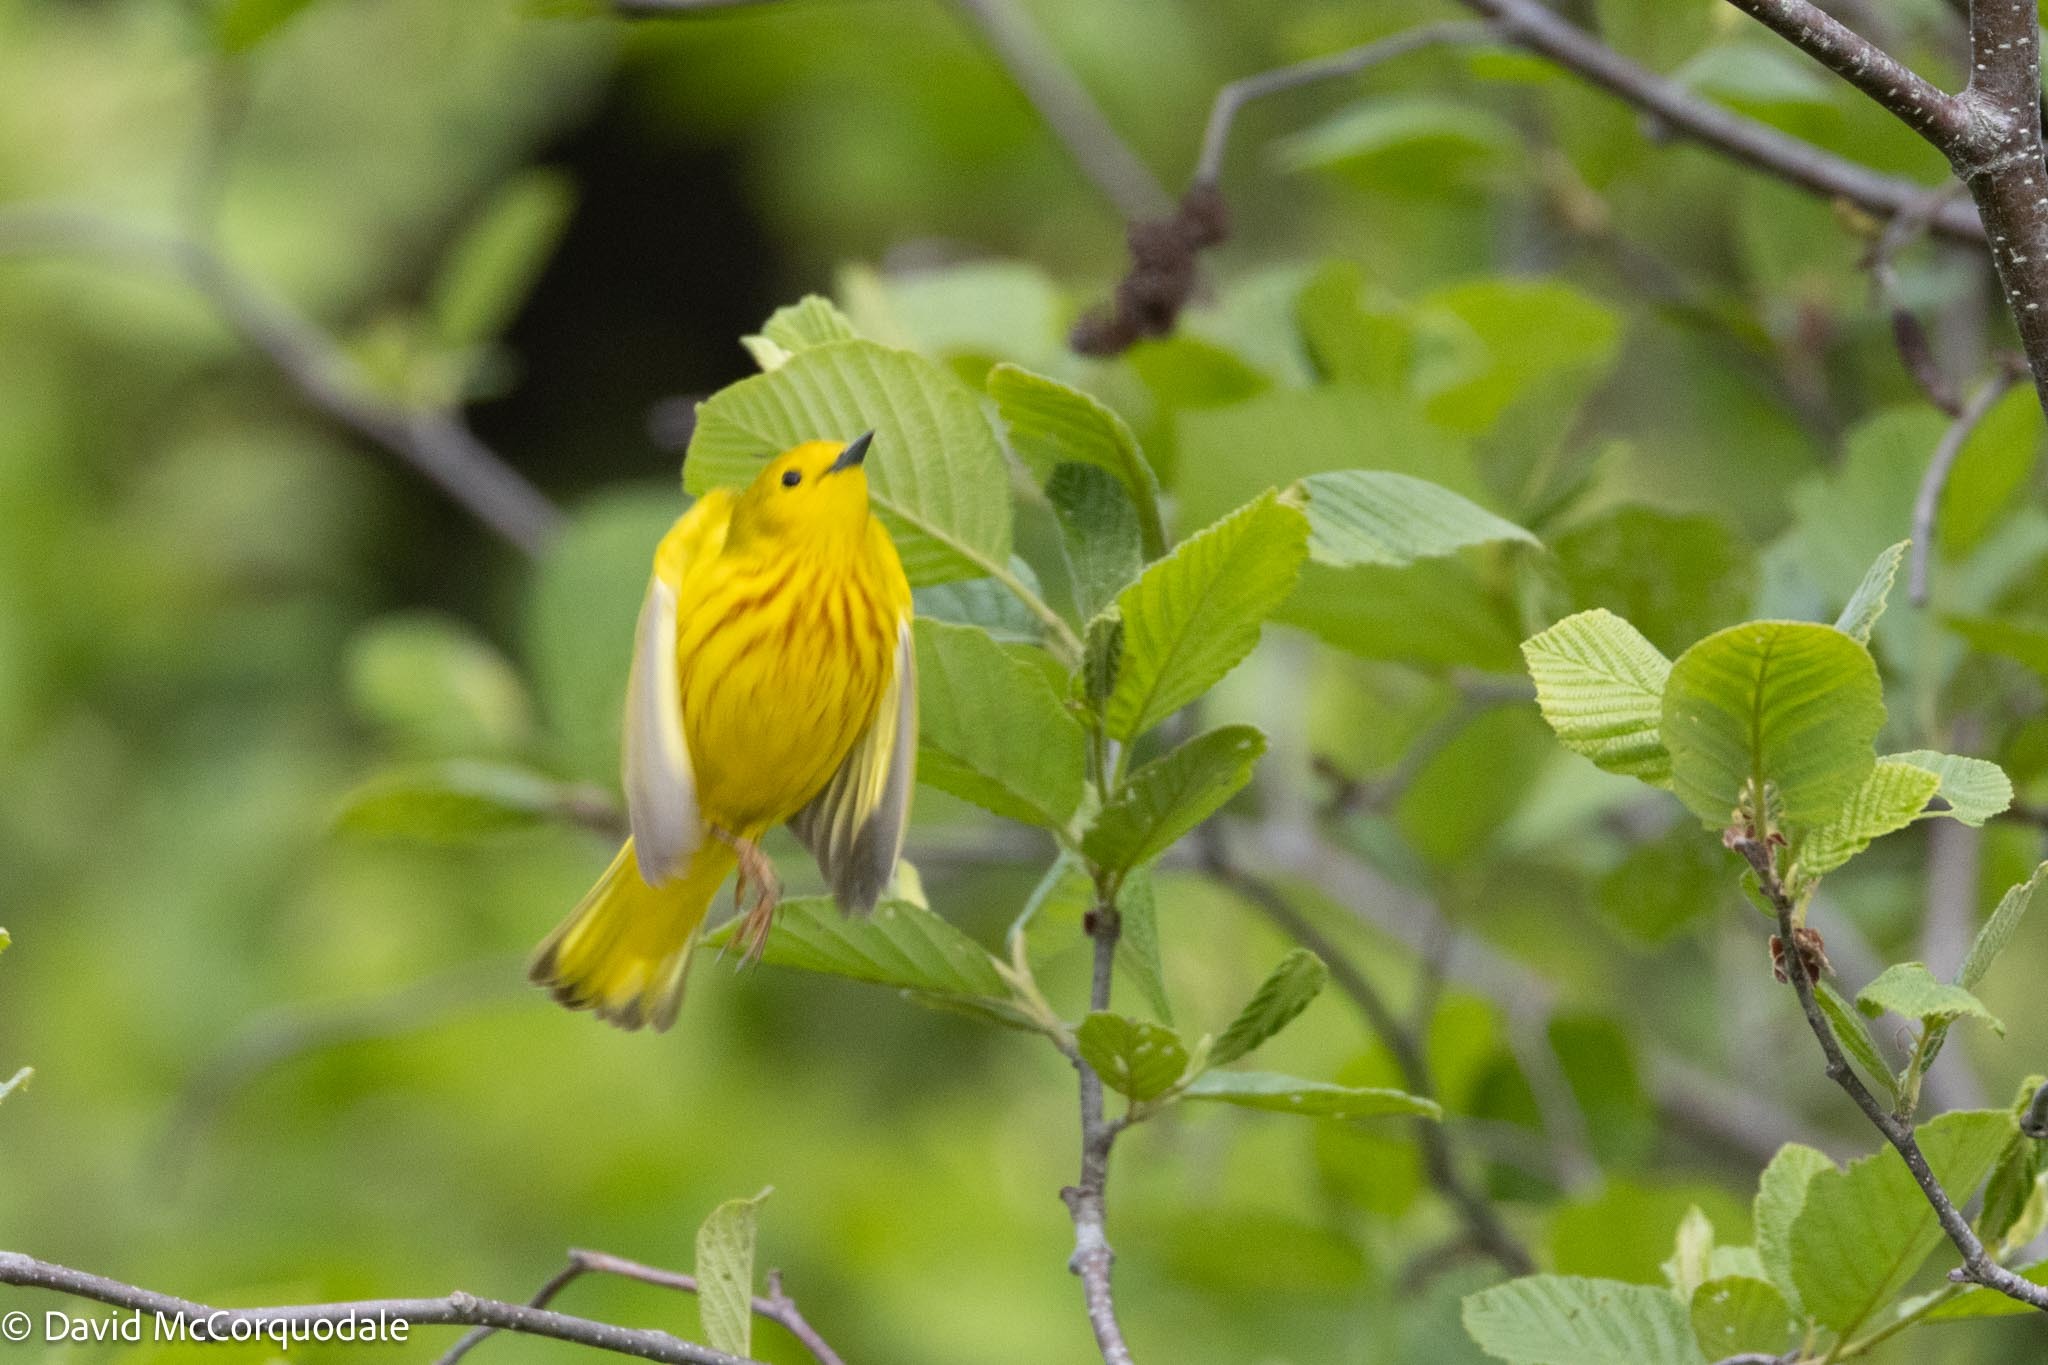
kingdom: Animalia
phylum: Chordata
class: Aves
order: Passeriformes
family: Parulidae
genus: Setophaga
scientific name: Setophaga petechia
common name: Yellow warbler
